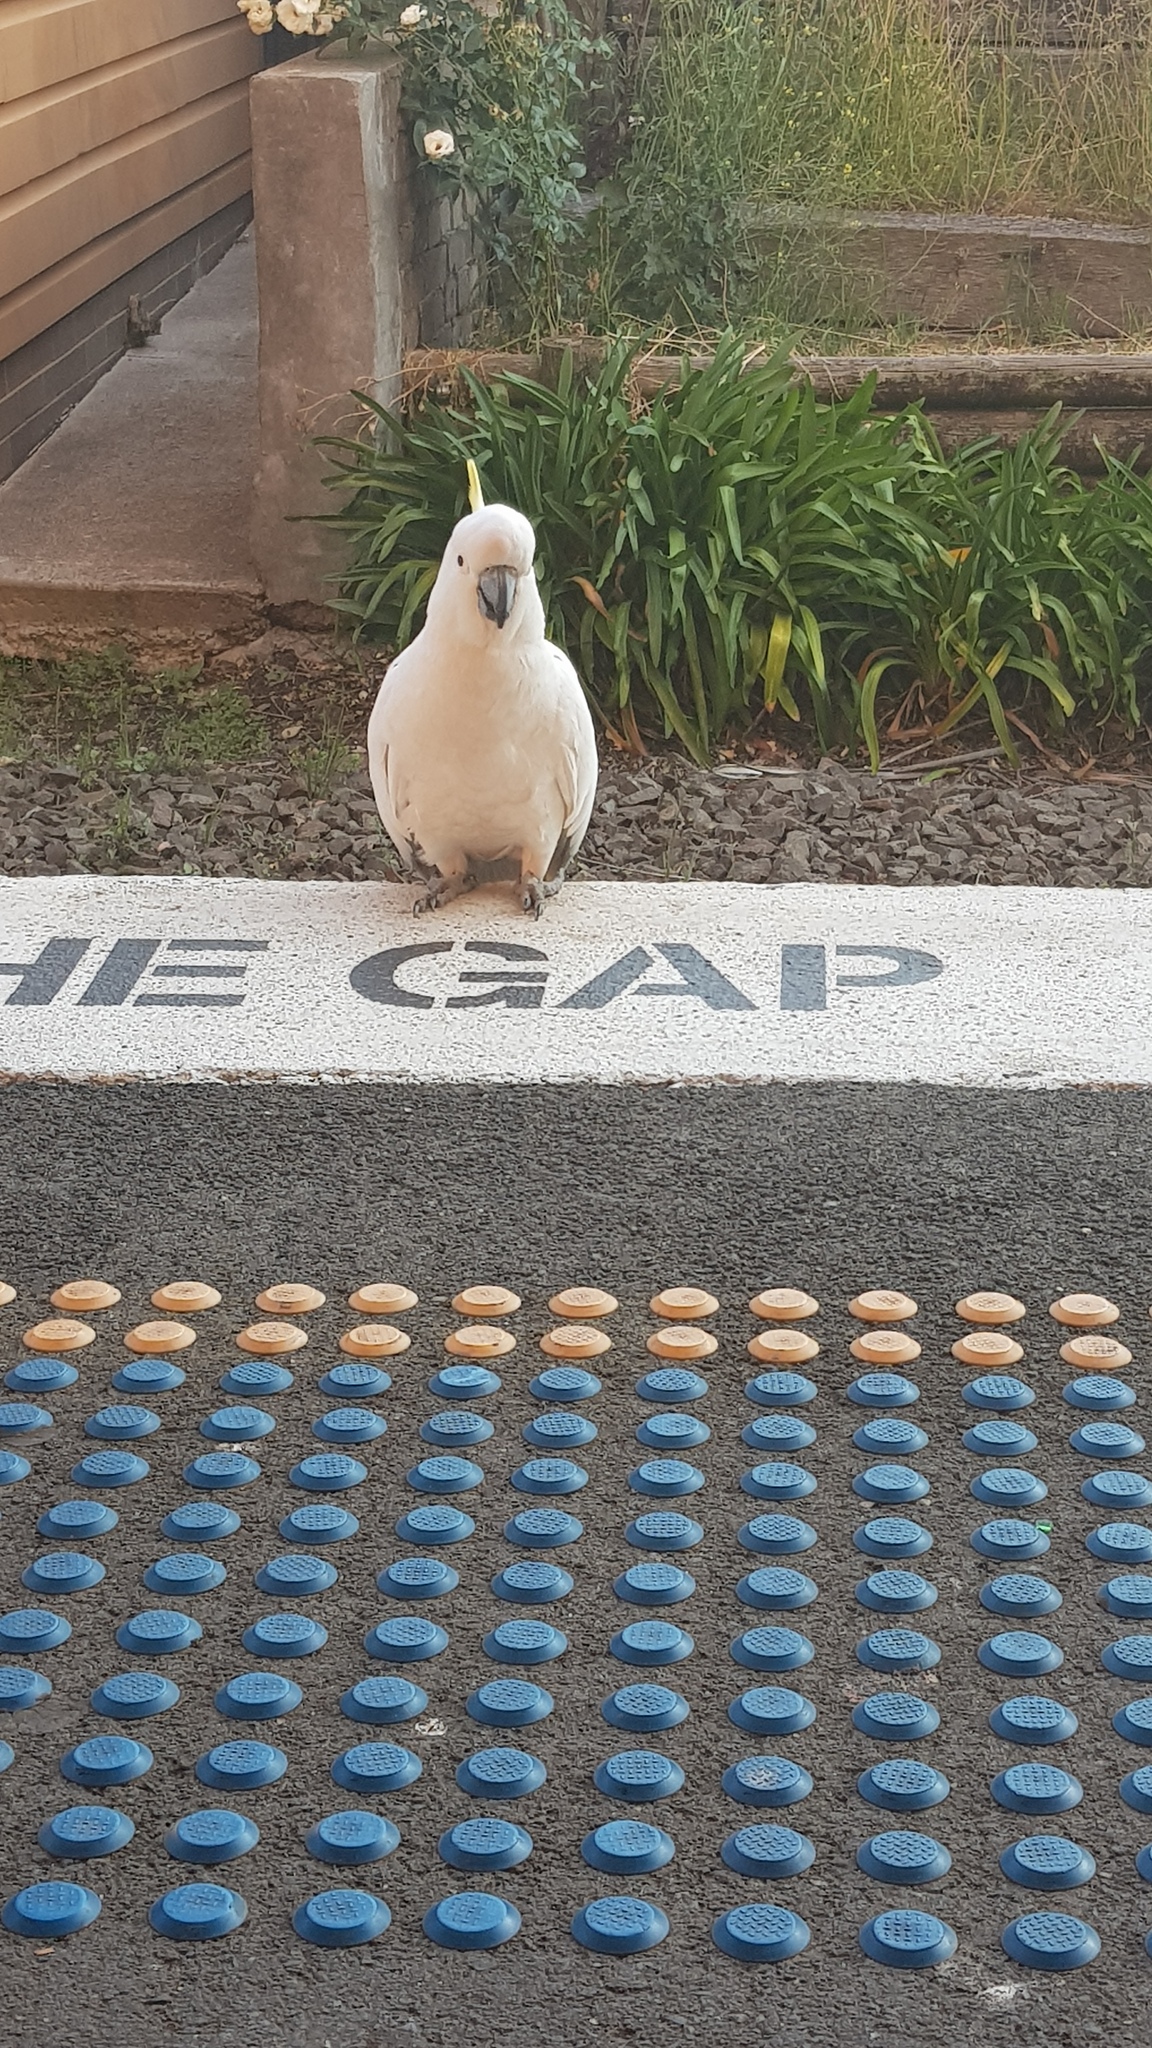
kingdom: Animalia
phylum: Chordata
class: Aves
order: Psittaciformes
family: Psittacidae
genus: Cacatua
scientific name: Cacatua galerita
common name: Sulphur-crested cockatoo
